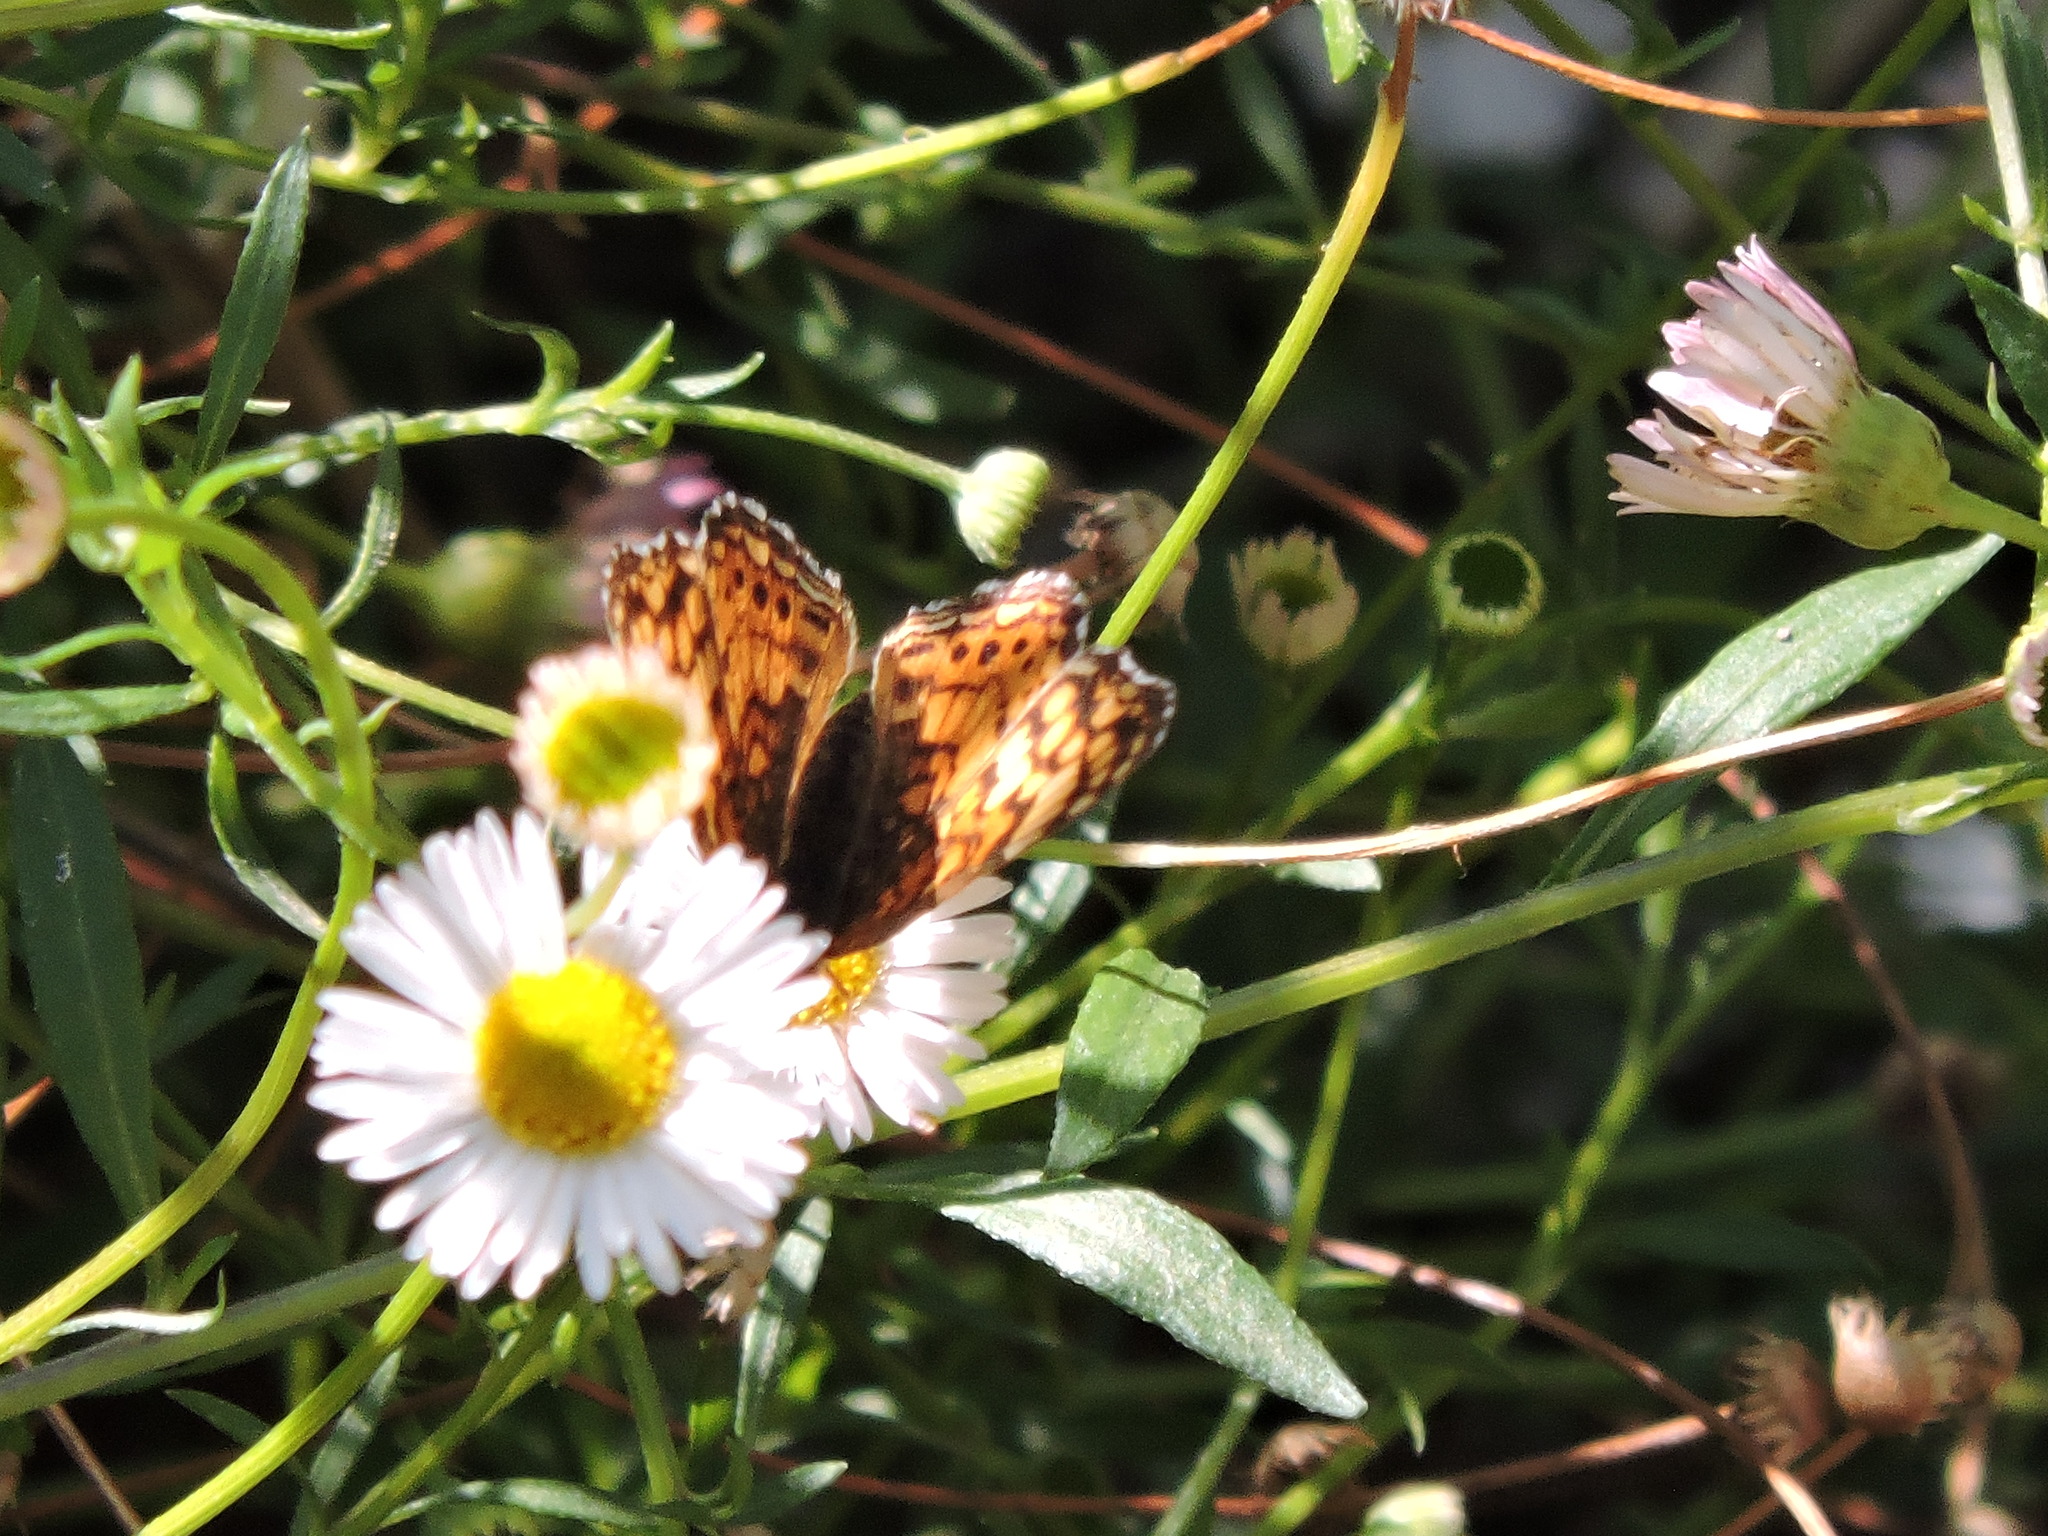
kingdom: Animalia
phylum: Arthropoda
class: Insecta
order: Lepidoptera
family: Nymphalidae
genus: Eresia
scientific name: Eresia aveyrona
